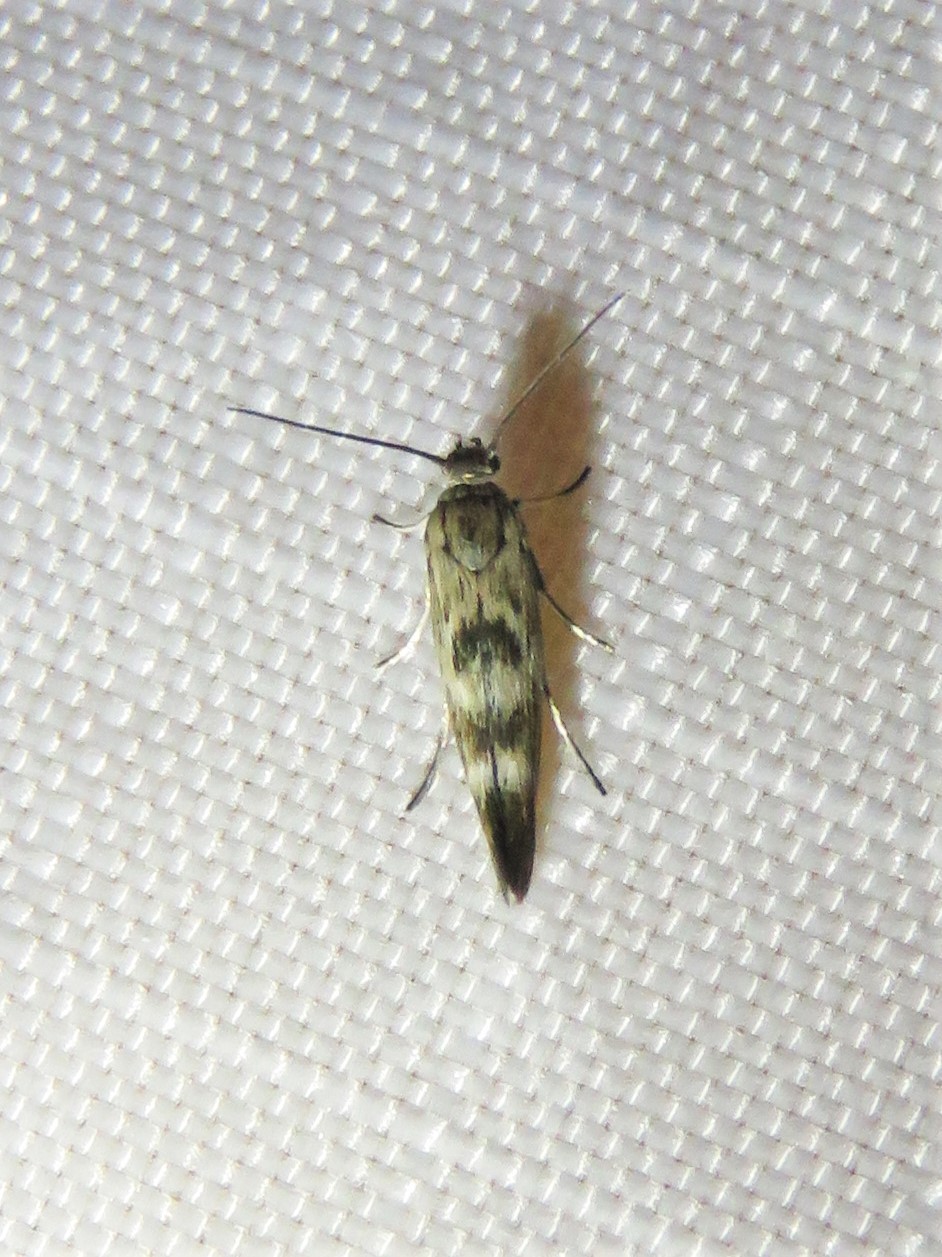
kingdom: Animalia
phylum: Arthropoda
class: Insecta
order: Lepidoptera
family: Scythrididae
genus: Scythris
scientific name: Scythris trivinctella
